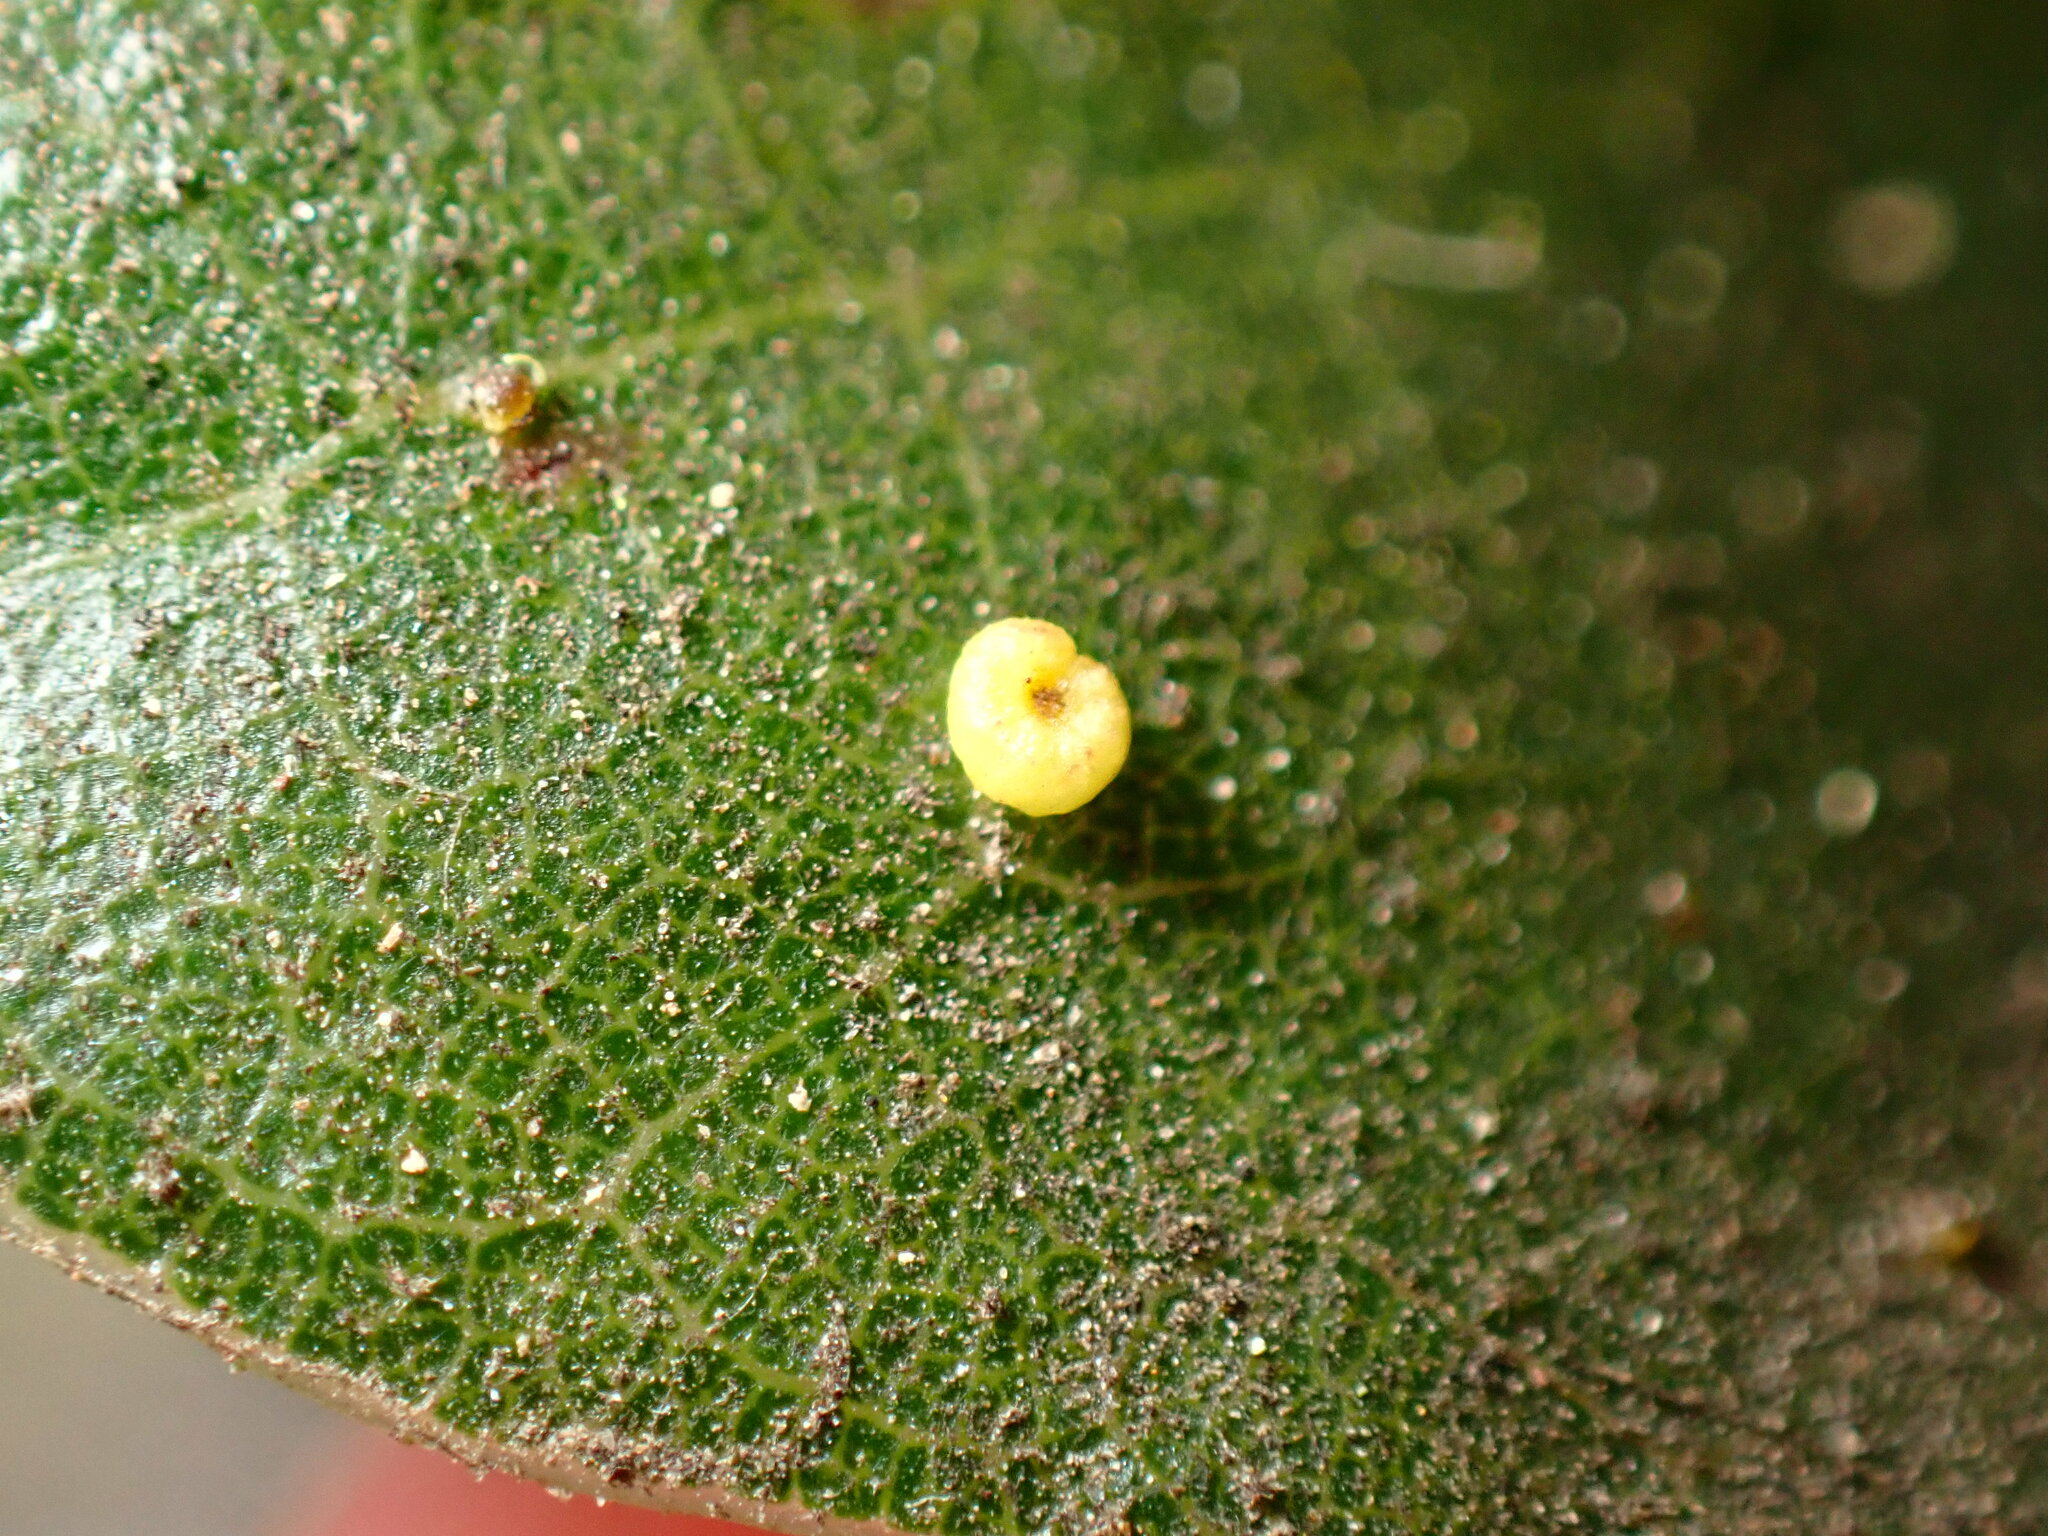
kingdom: Animalia
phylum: Arthropoda
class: Insecta
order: Hymenoptera
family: Cynipidae
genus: Dryocosmus
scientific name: Dryocosmus
